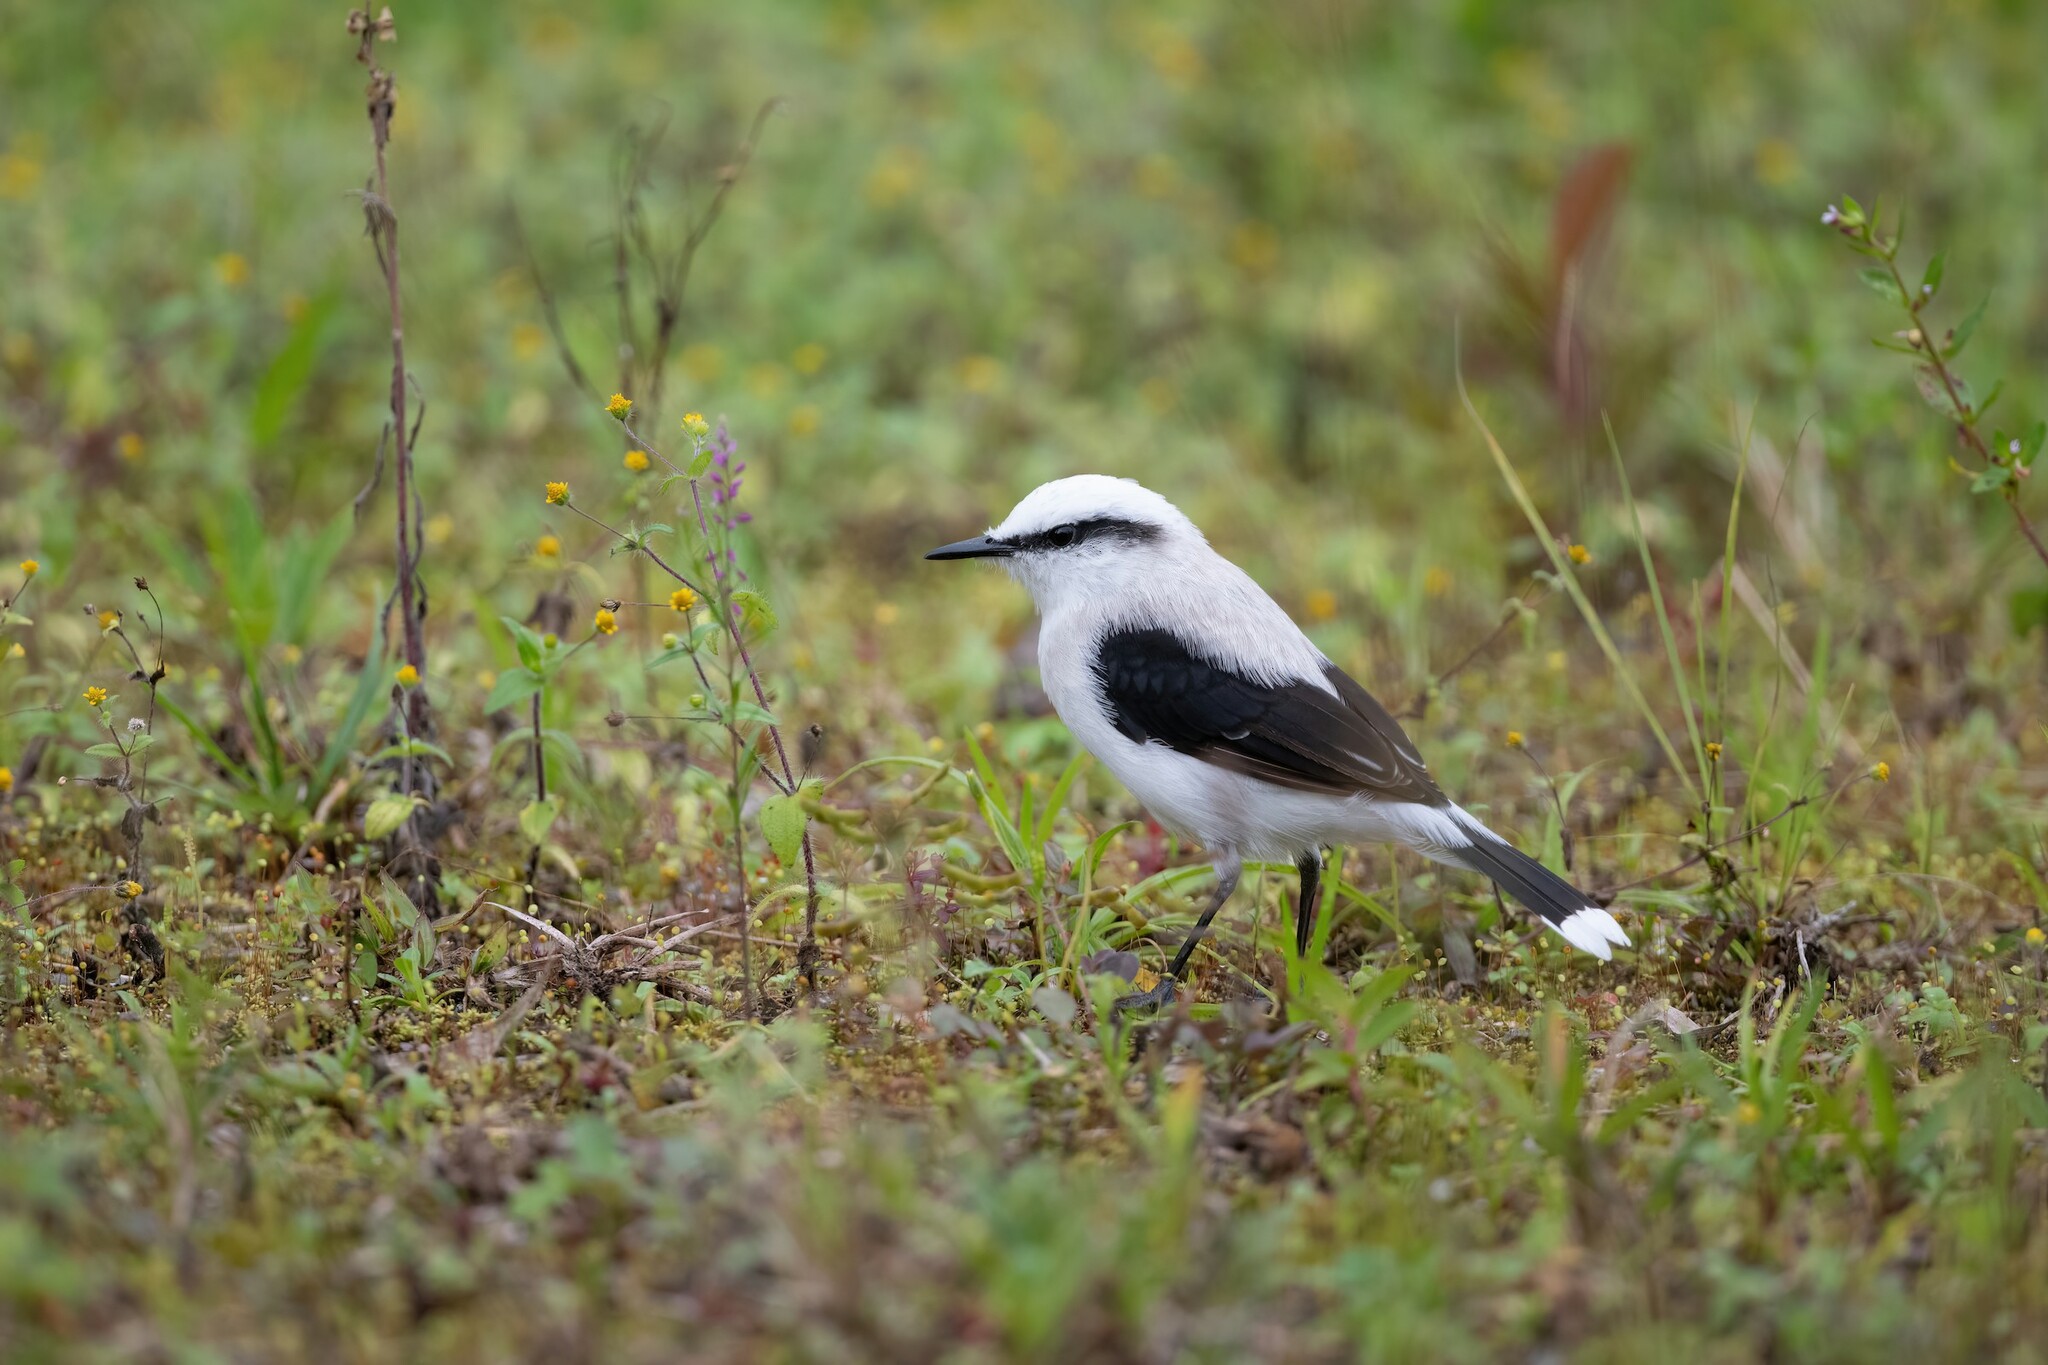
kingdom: Animalia
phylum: Chordata
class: Aves
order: Passeriformes
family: Tyrannidae
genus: Fluvicola
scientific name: Fluvicola nengeta
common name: Masked water tyrant
